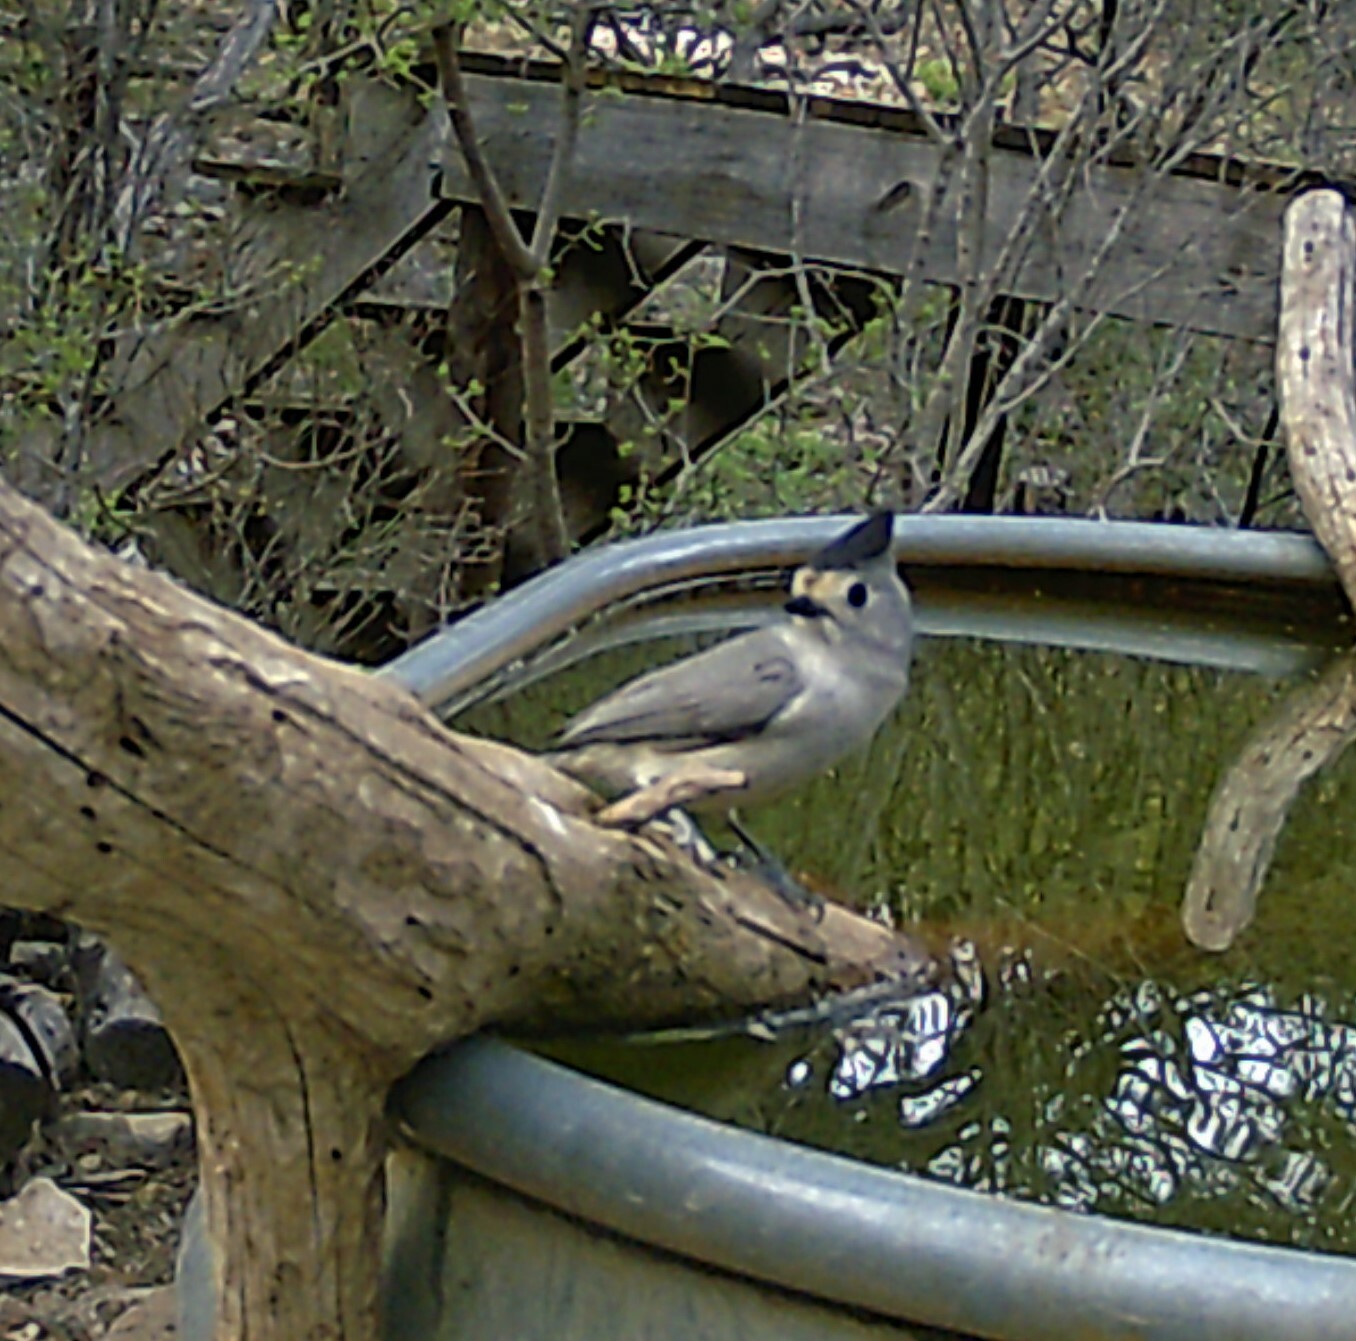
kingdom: Animalia
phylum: Chordata
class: Aves
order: Passeriformes
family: Paridae
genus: Baeolophus
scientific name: Baeolophus atricristatus
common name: Black-crested titmouse
